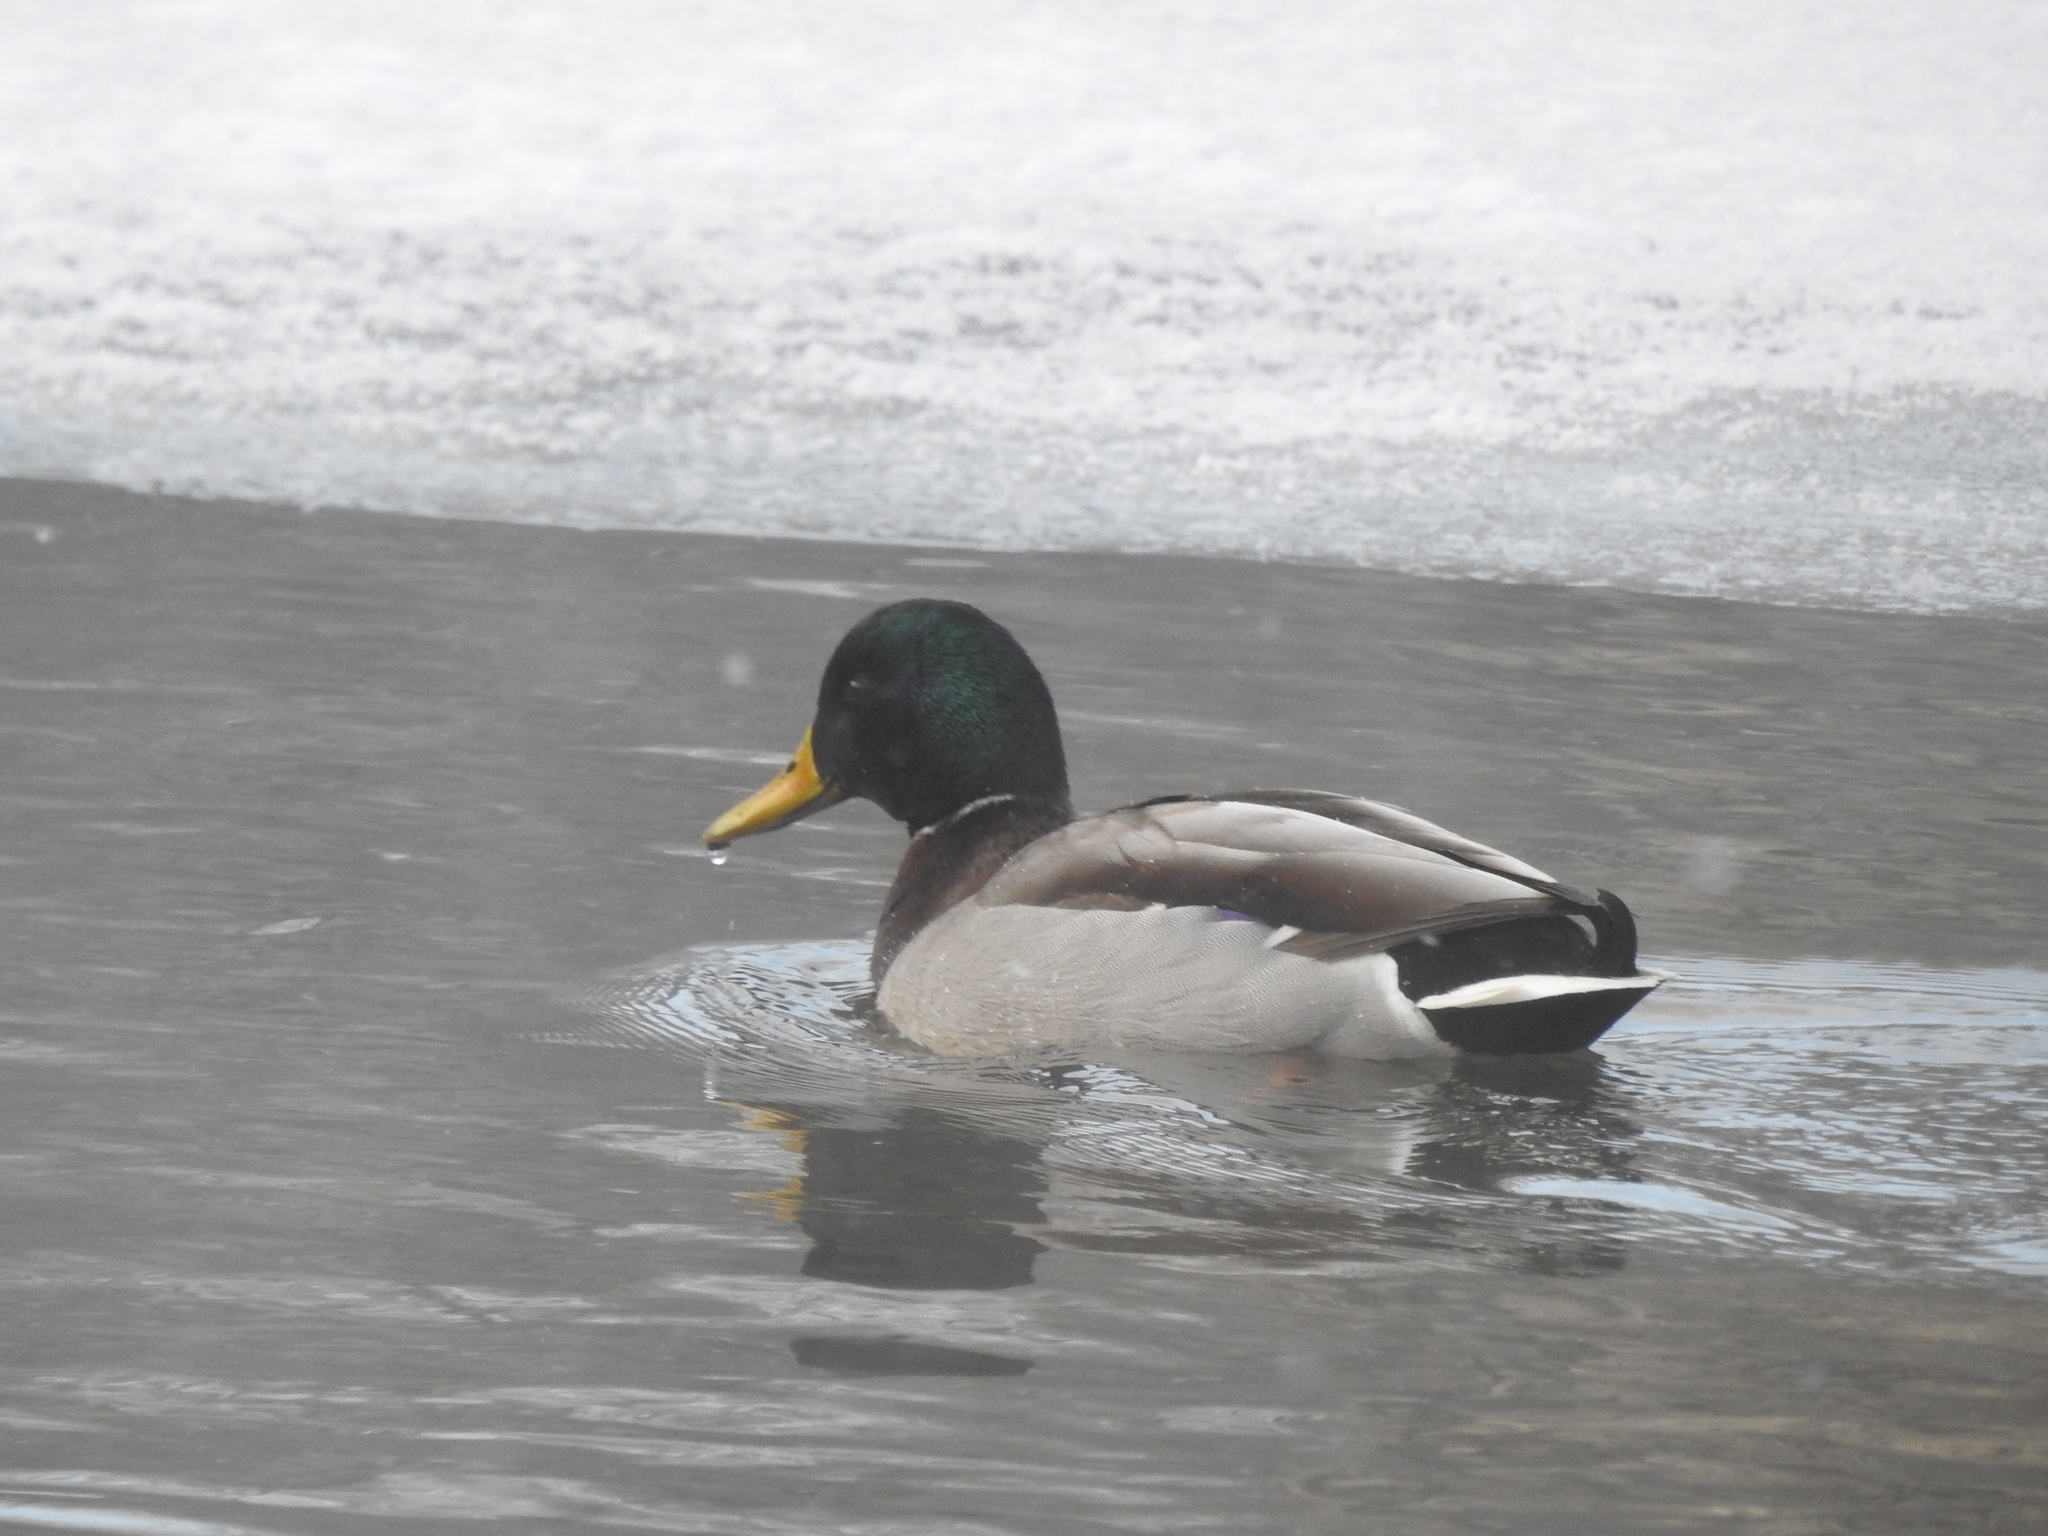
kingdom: Animalia
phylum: Chordata
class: Aves
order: Anseriformes
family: Anatidae
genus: Anas
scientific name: Anas platyrhynchos
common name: Mallard
